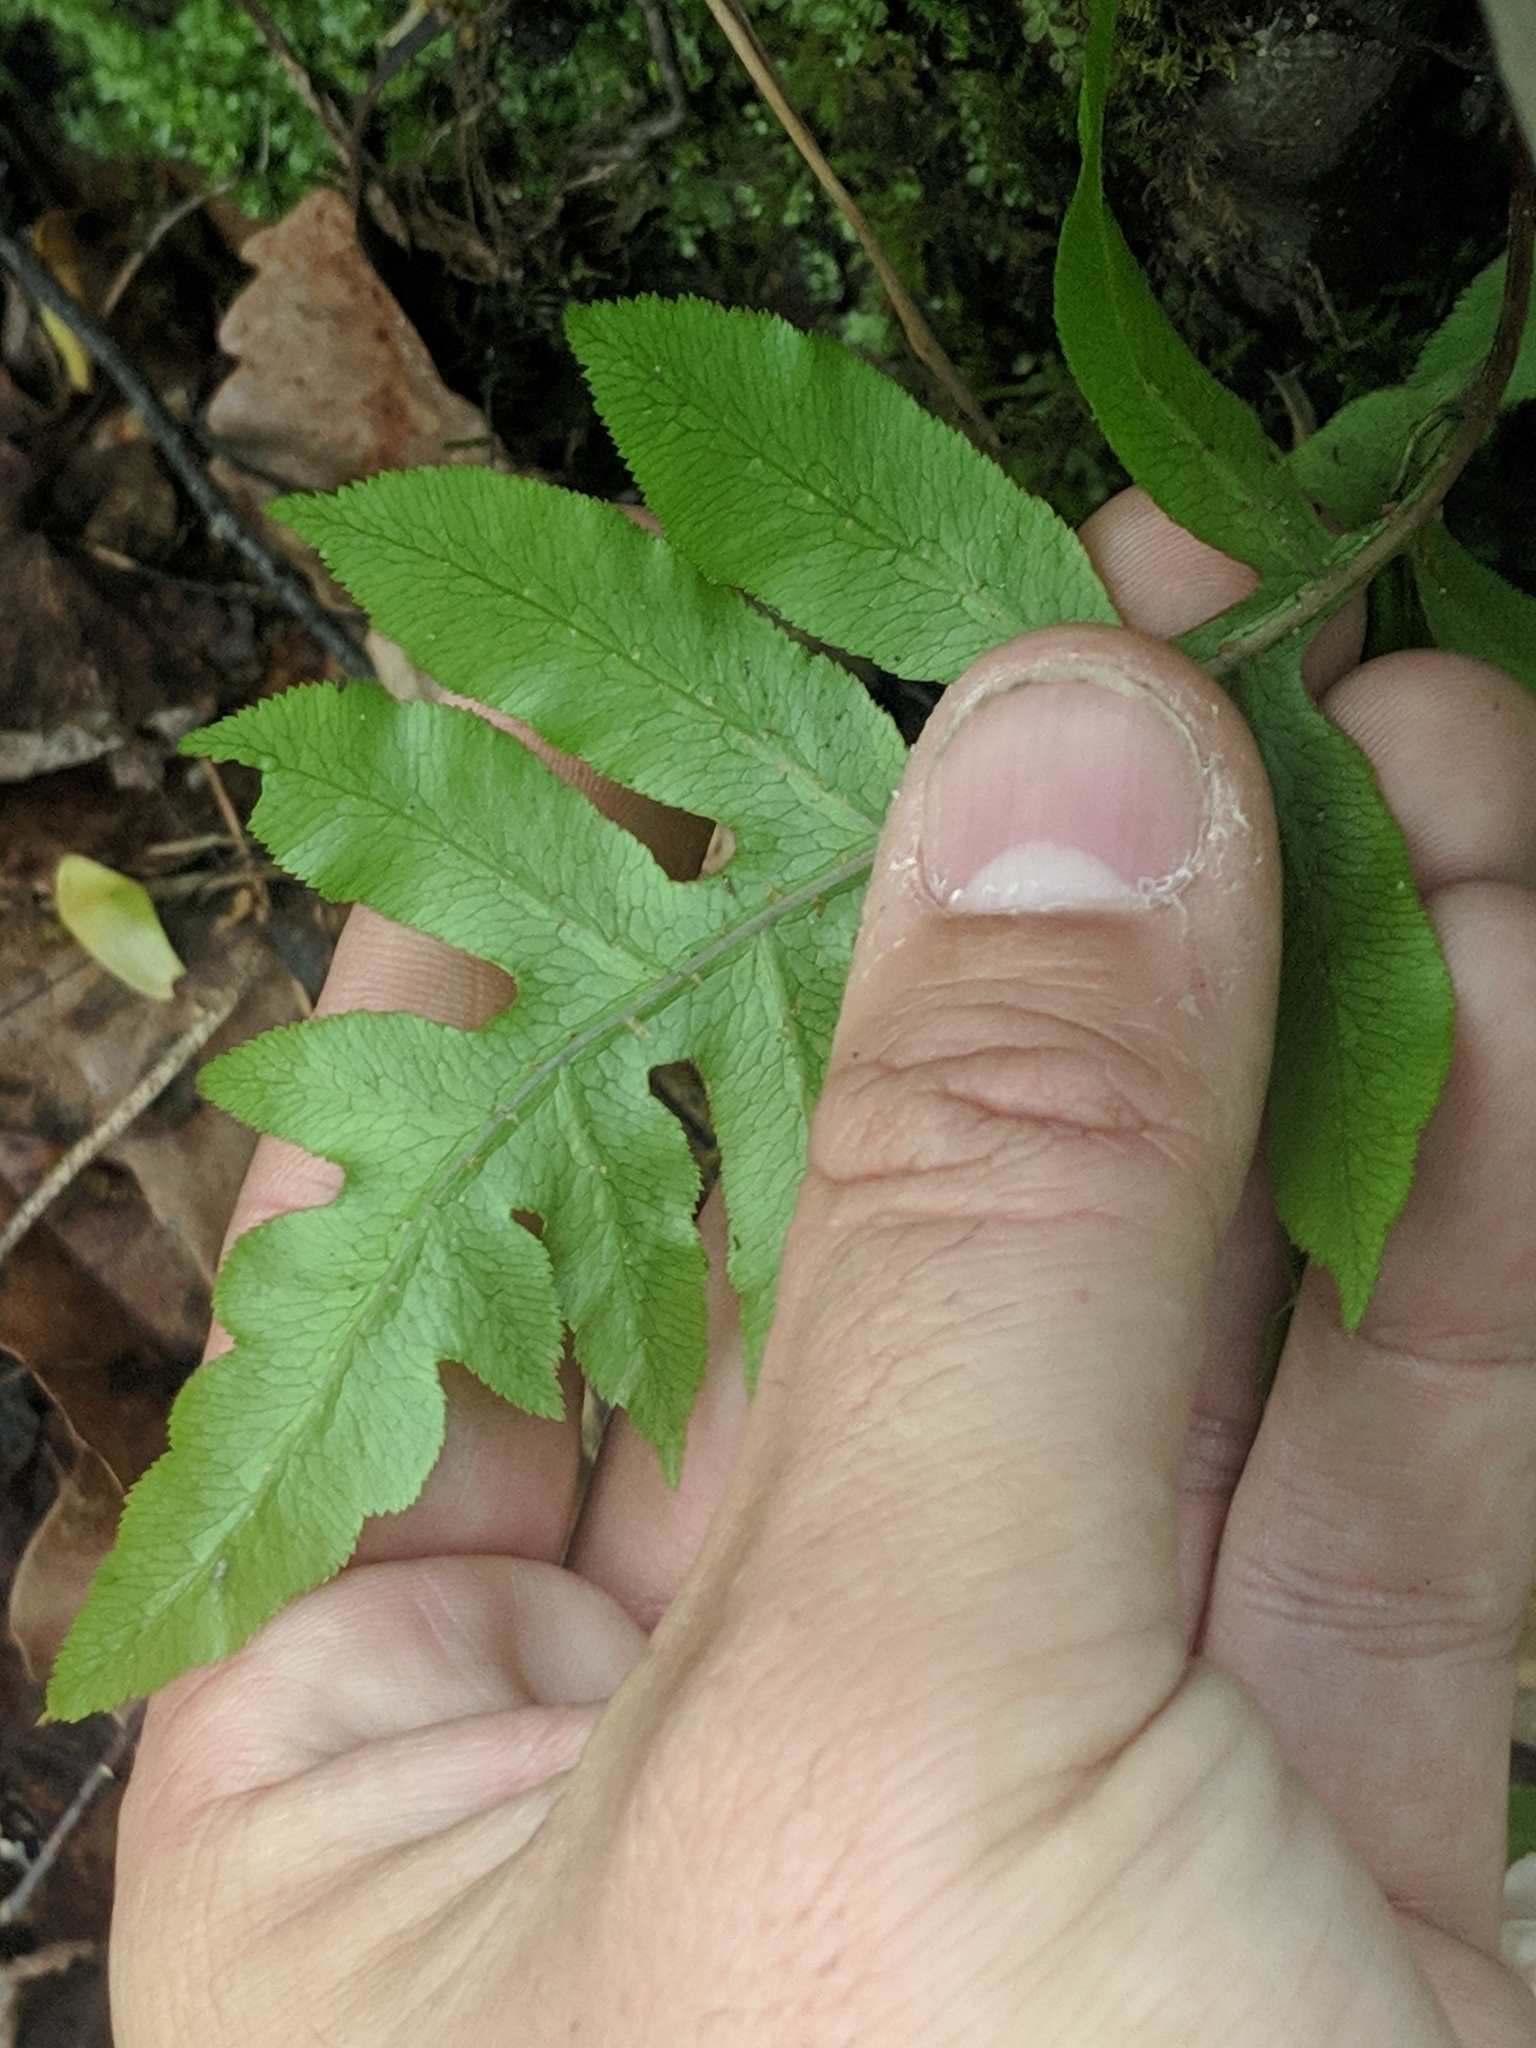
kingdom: Plantae
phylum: Tracheophyta
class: Polypodiopsida
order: Polypodiales
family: Blechnaceae
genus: Lorinseria
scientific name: Lorinseria areolata
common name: Dwarf chain fern
